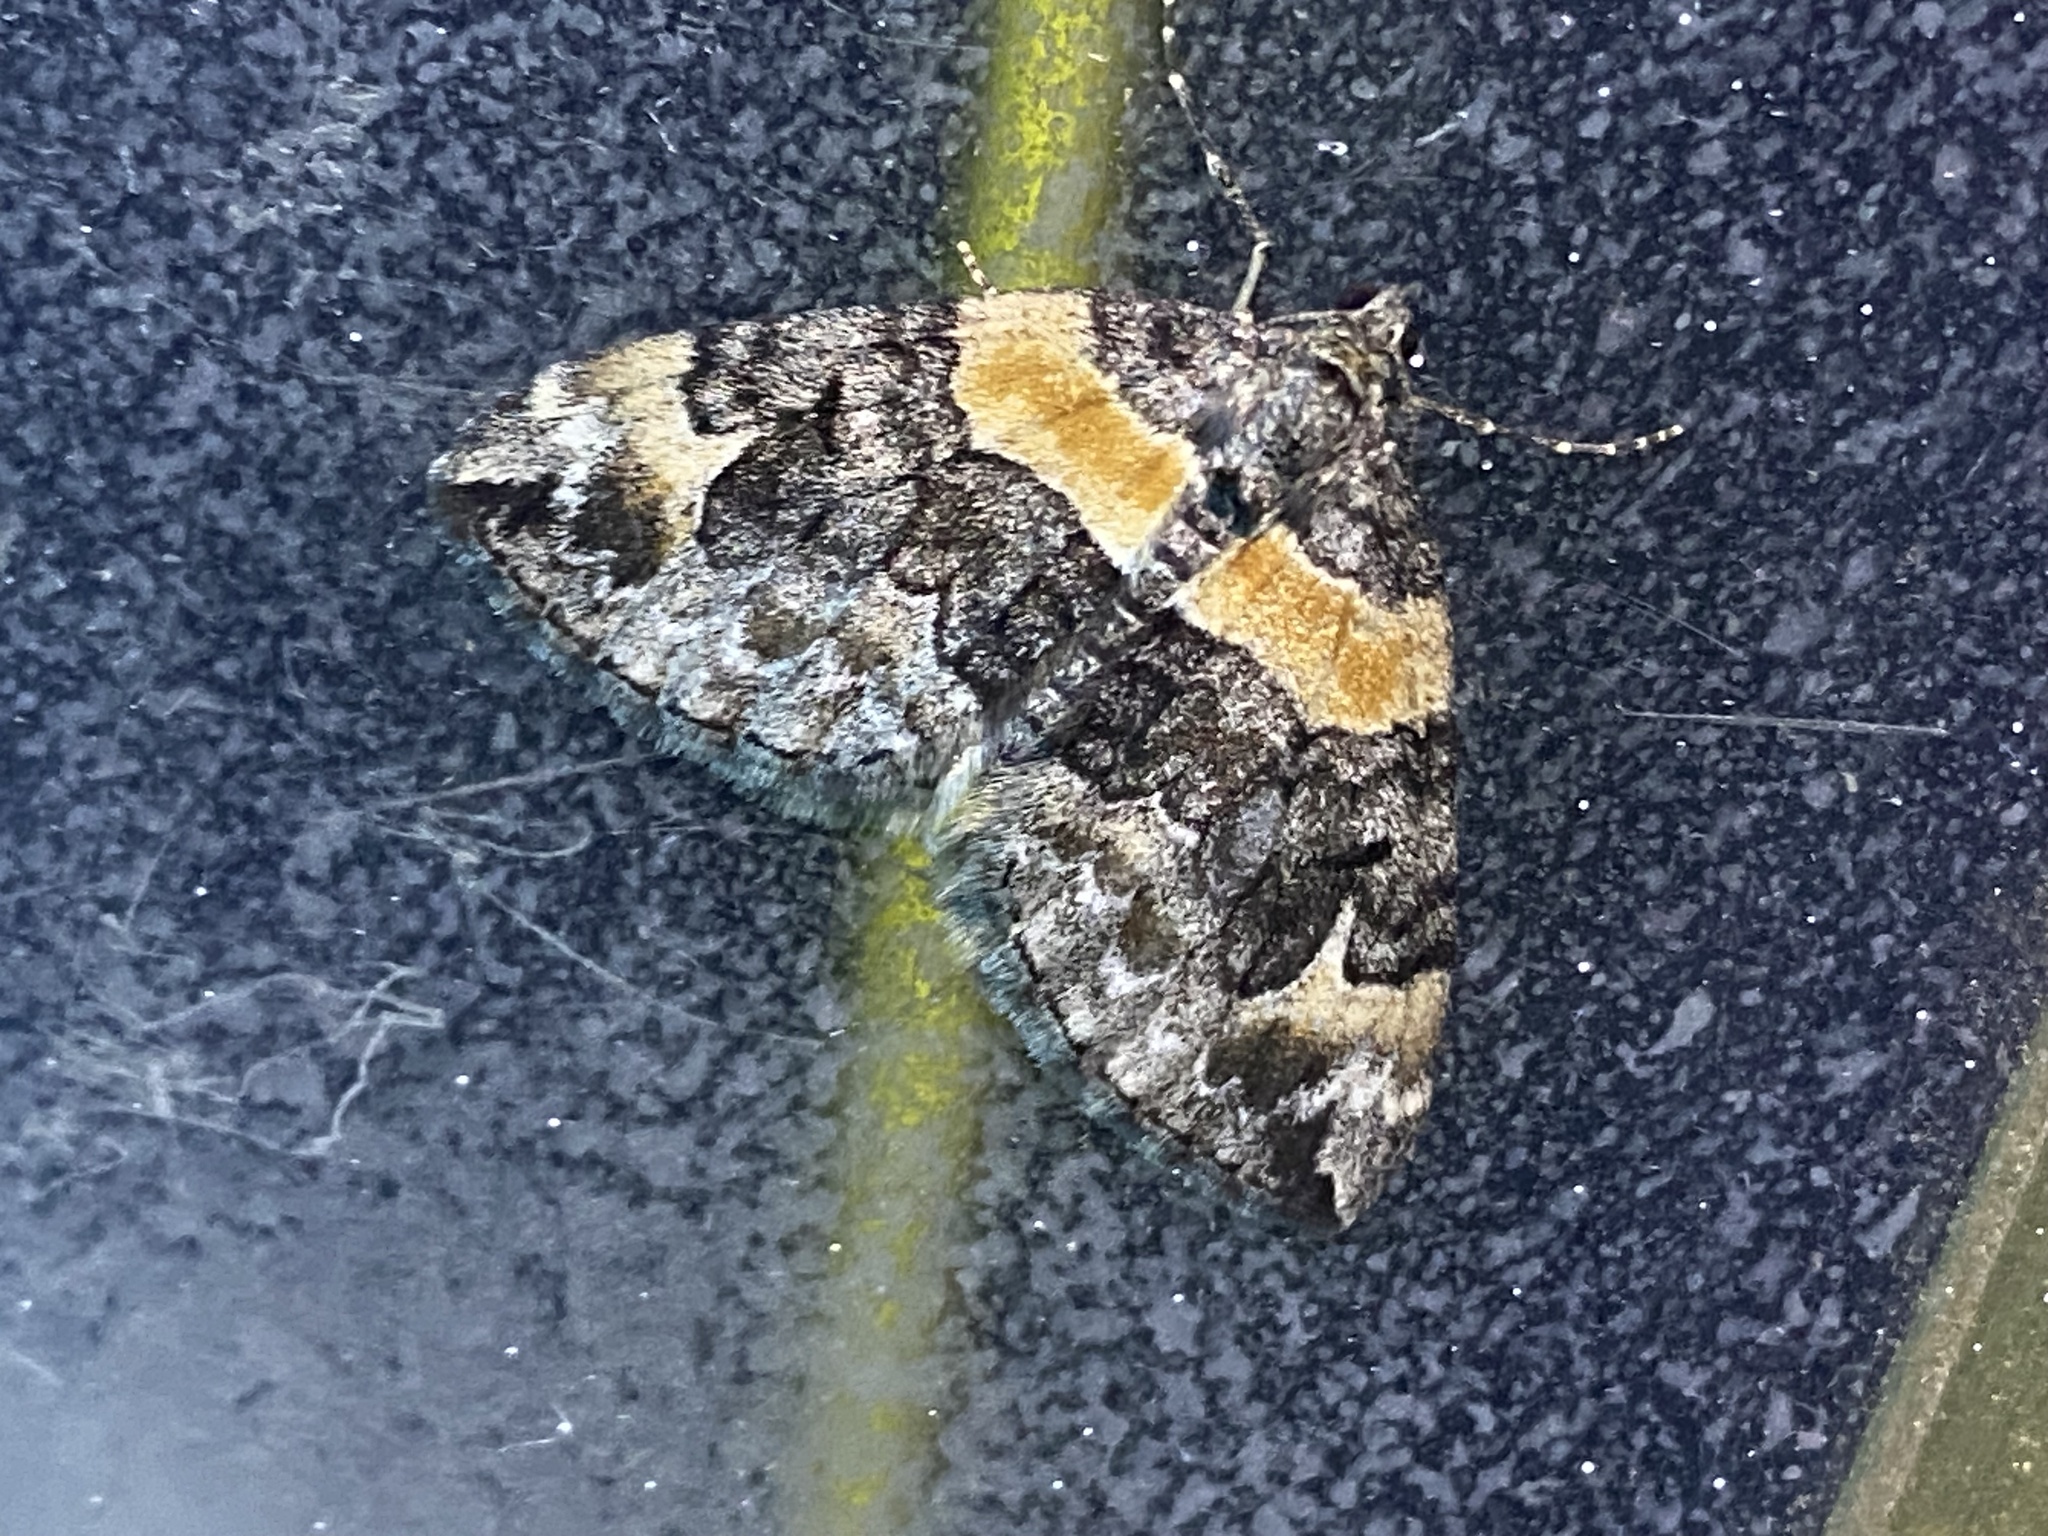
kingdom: Animalia
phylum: Arthropoda
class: Insecta
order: Lepidoptera
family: Geometridae
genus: Dysstroma
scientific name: Dysstroma hersiliata
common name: Orange-barred carpet
